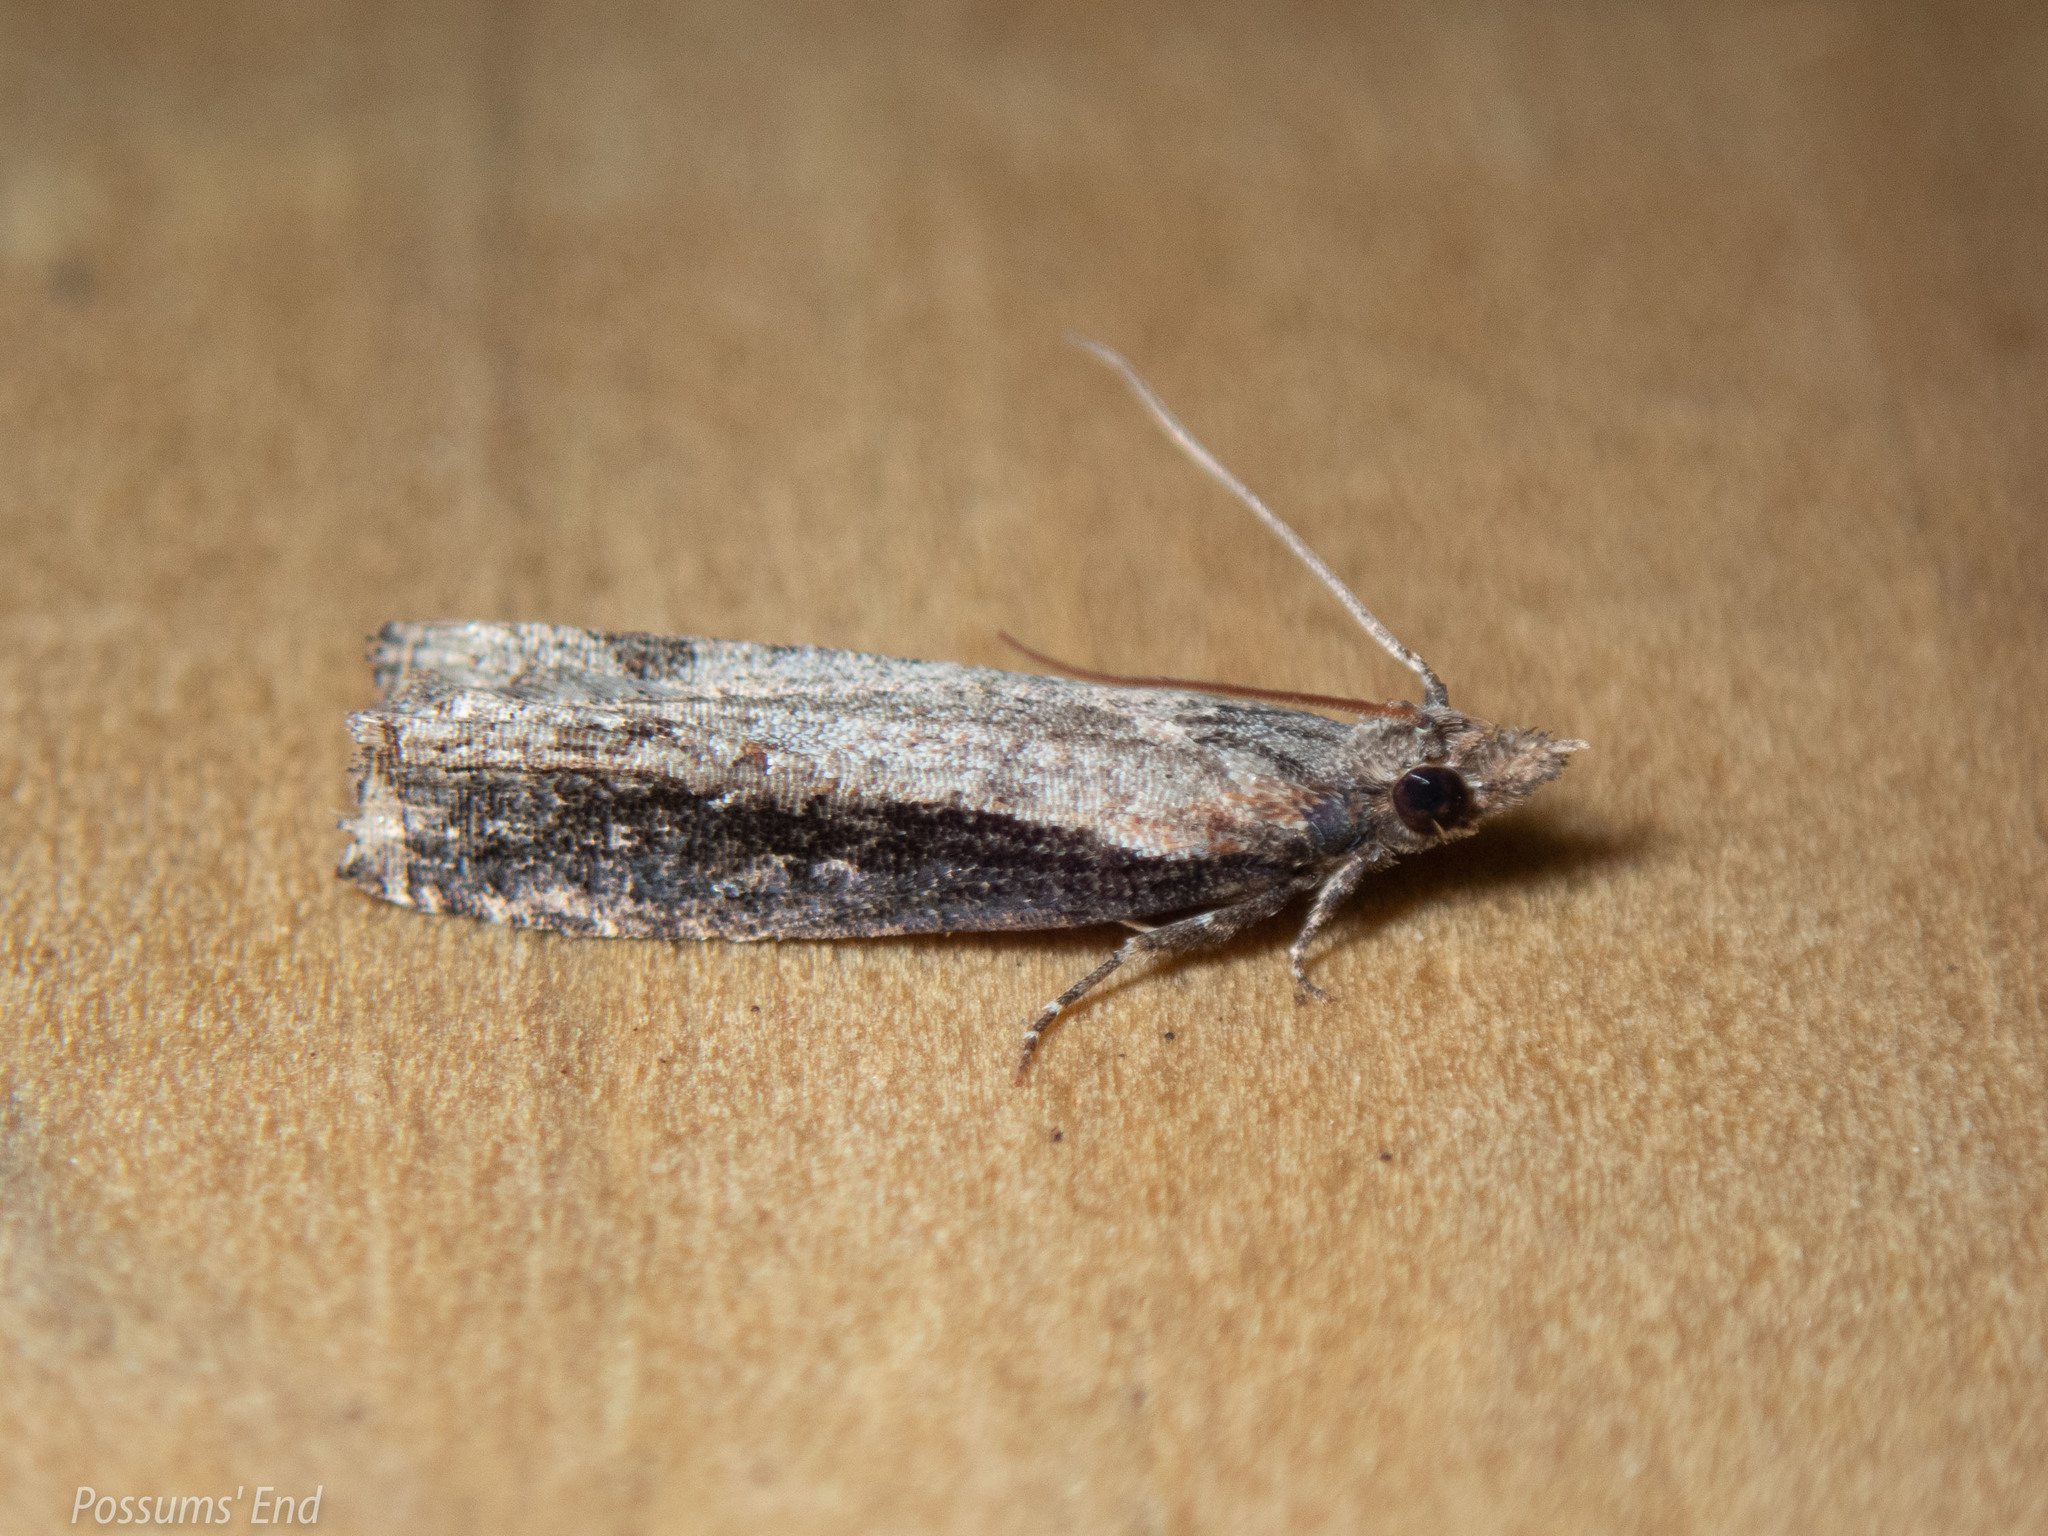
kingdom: Animalia
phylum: Arthropoda
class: Insecta
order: Lepidoptera
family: Tortricidae
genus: Strepsicrates
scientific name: Strepsicrates infensa
